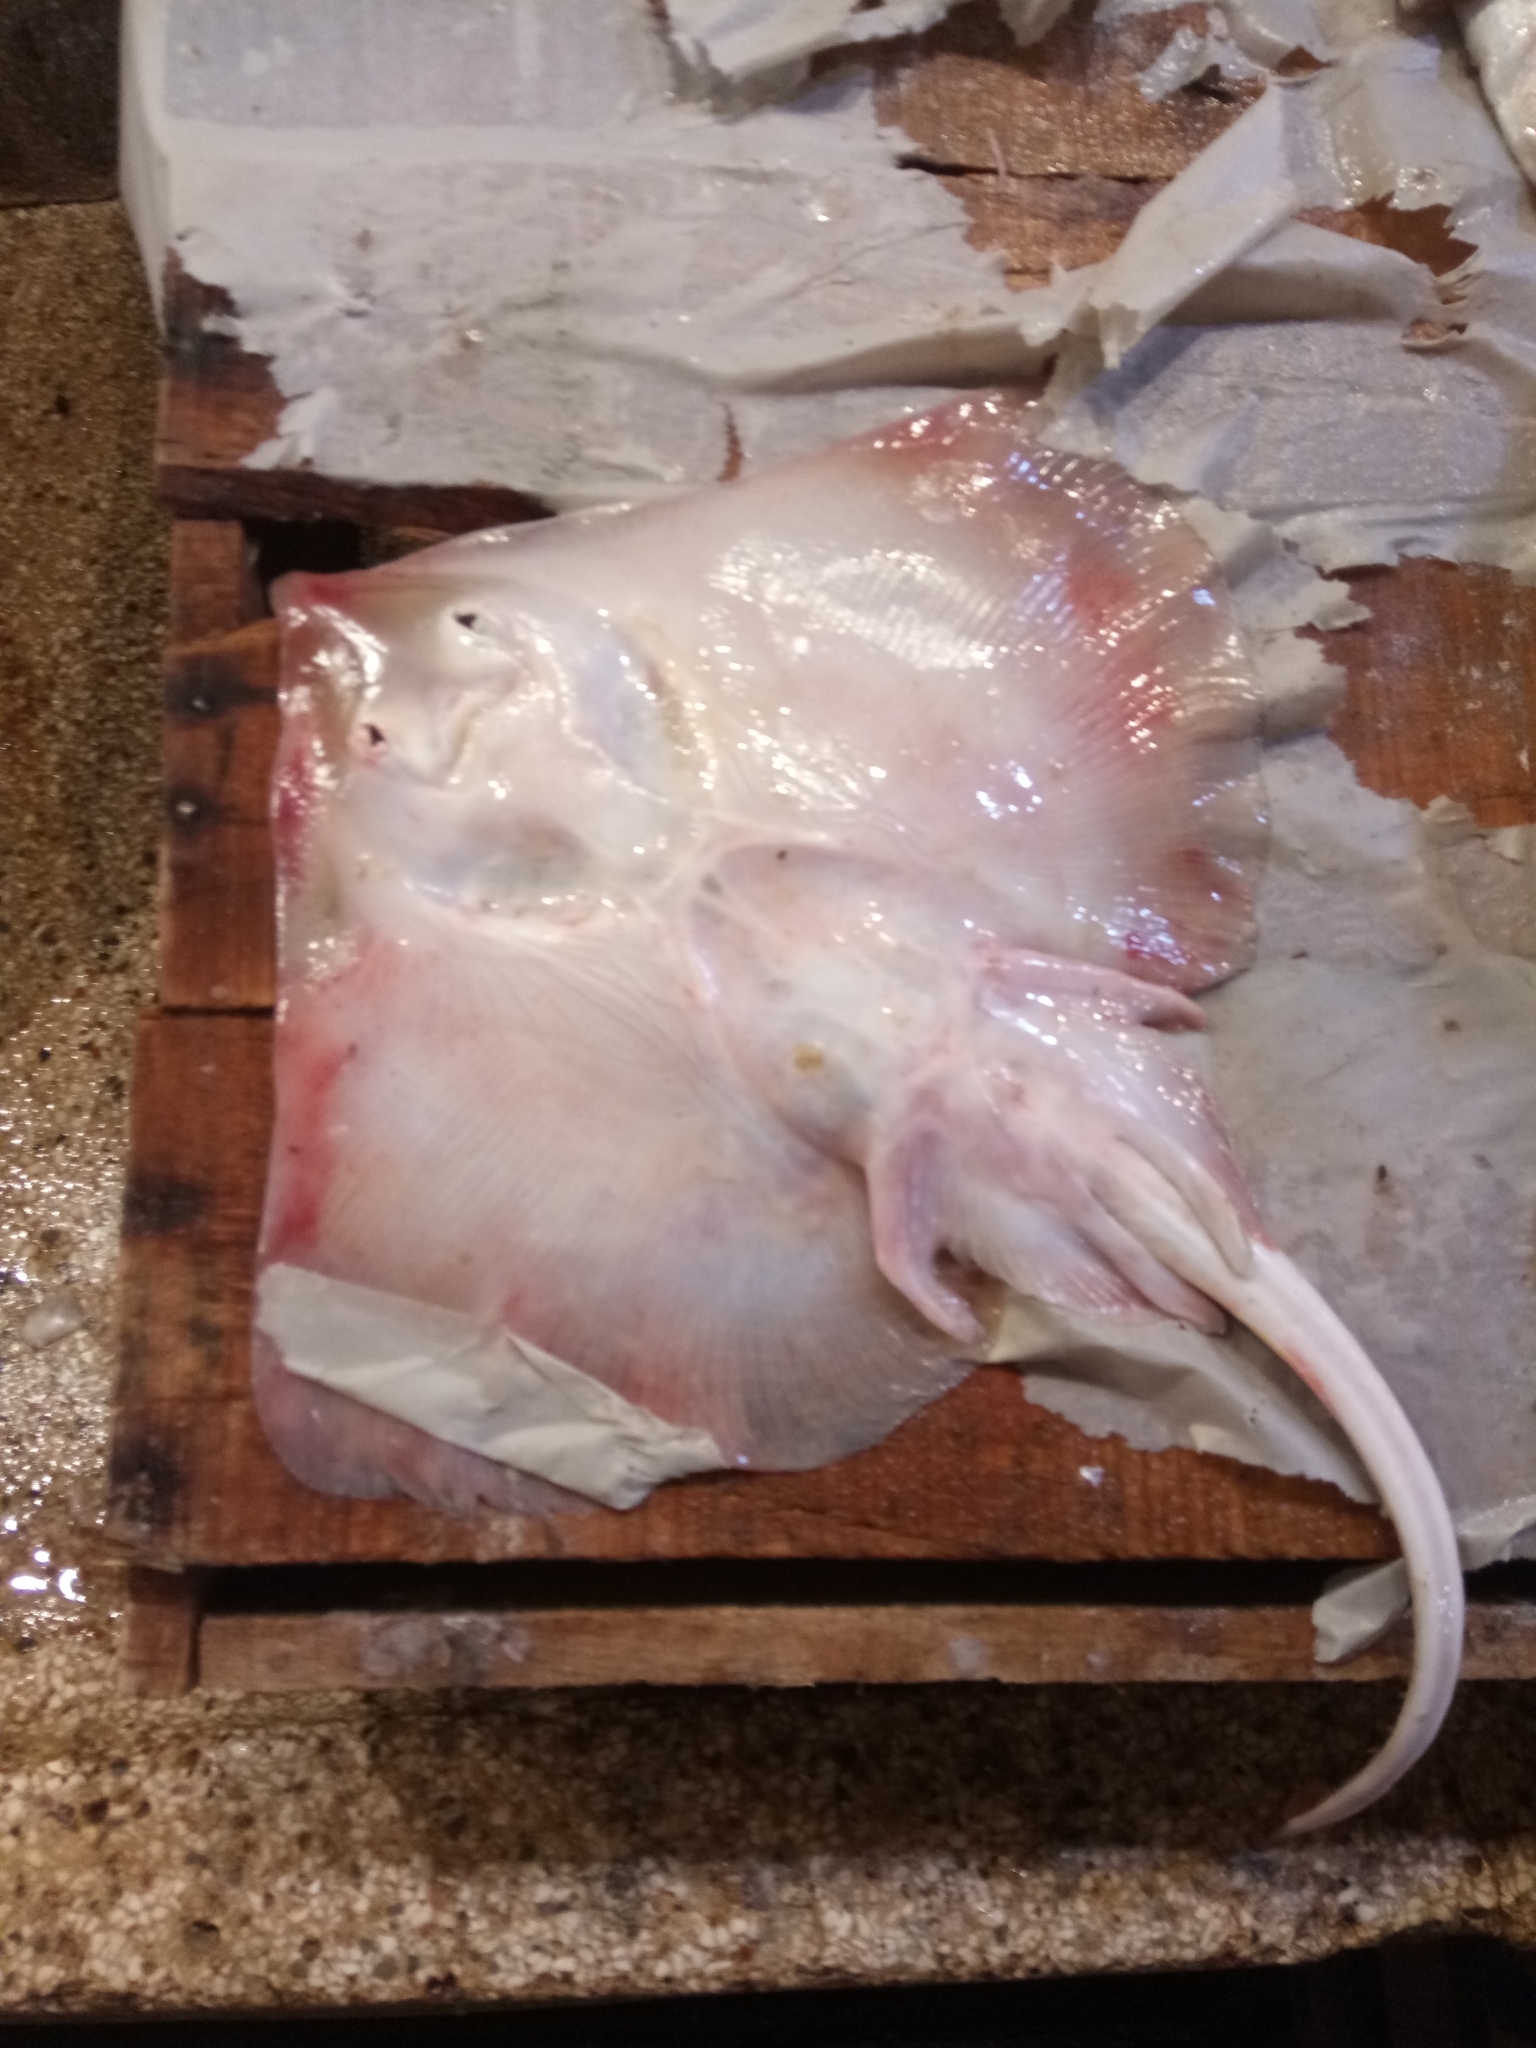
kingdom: Animalia
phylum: Chordata
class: Elasmobranchii
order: Rajiformes
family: Rajidae
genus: Raja
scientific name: Raja miraletus
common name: Brown ray
